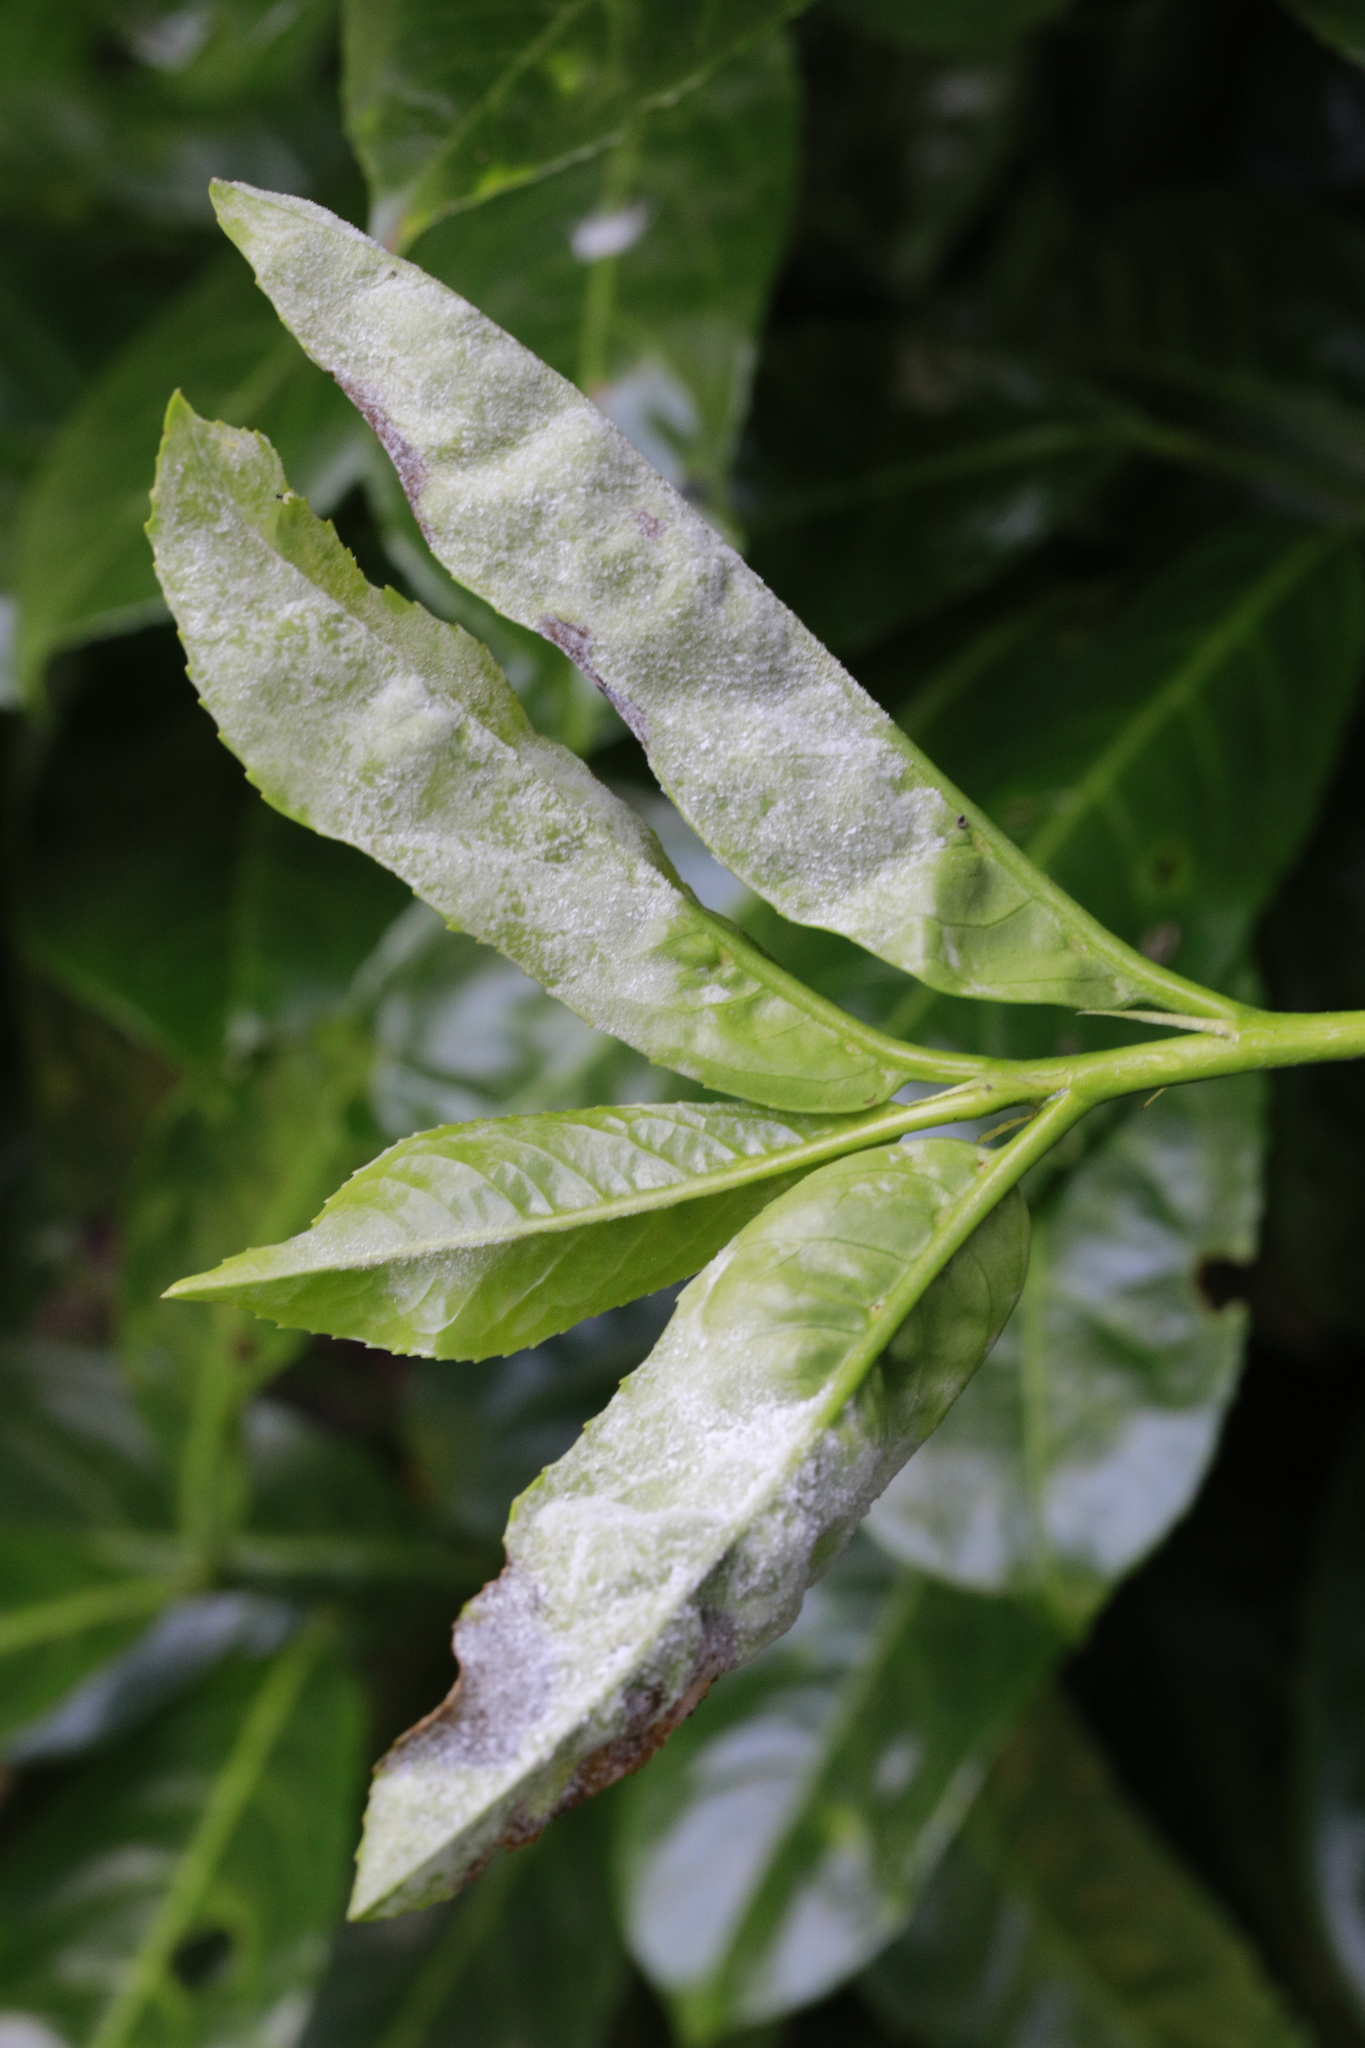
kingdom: Fungi
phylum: Ascomycota
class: Leotiomycetes
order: Helotiales
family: Erysiphaceae
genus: Podosphaera
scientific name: Podosphaera tridactyla
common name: Plum mildew
